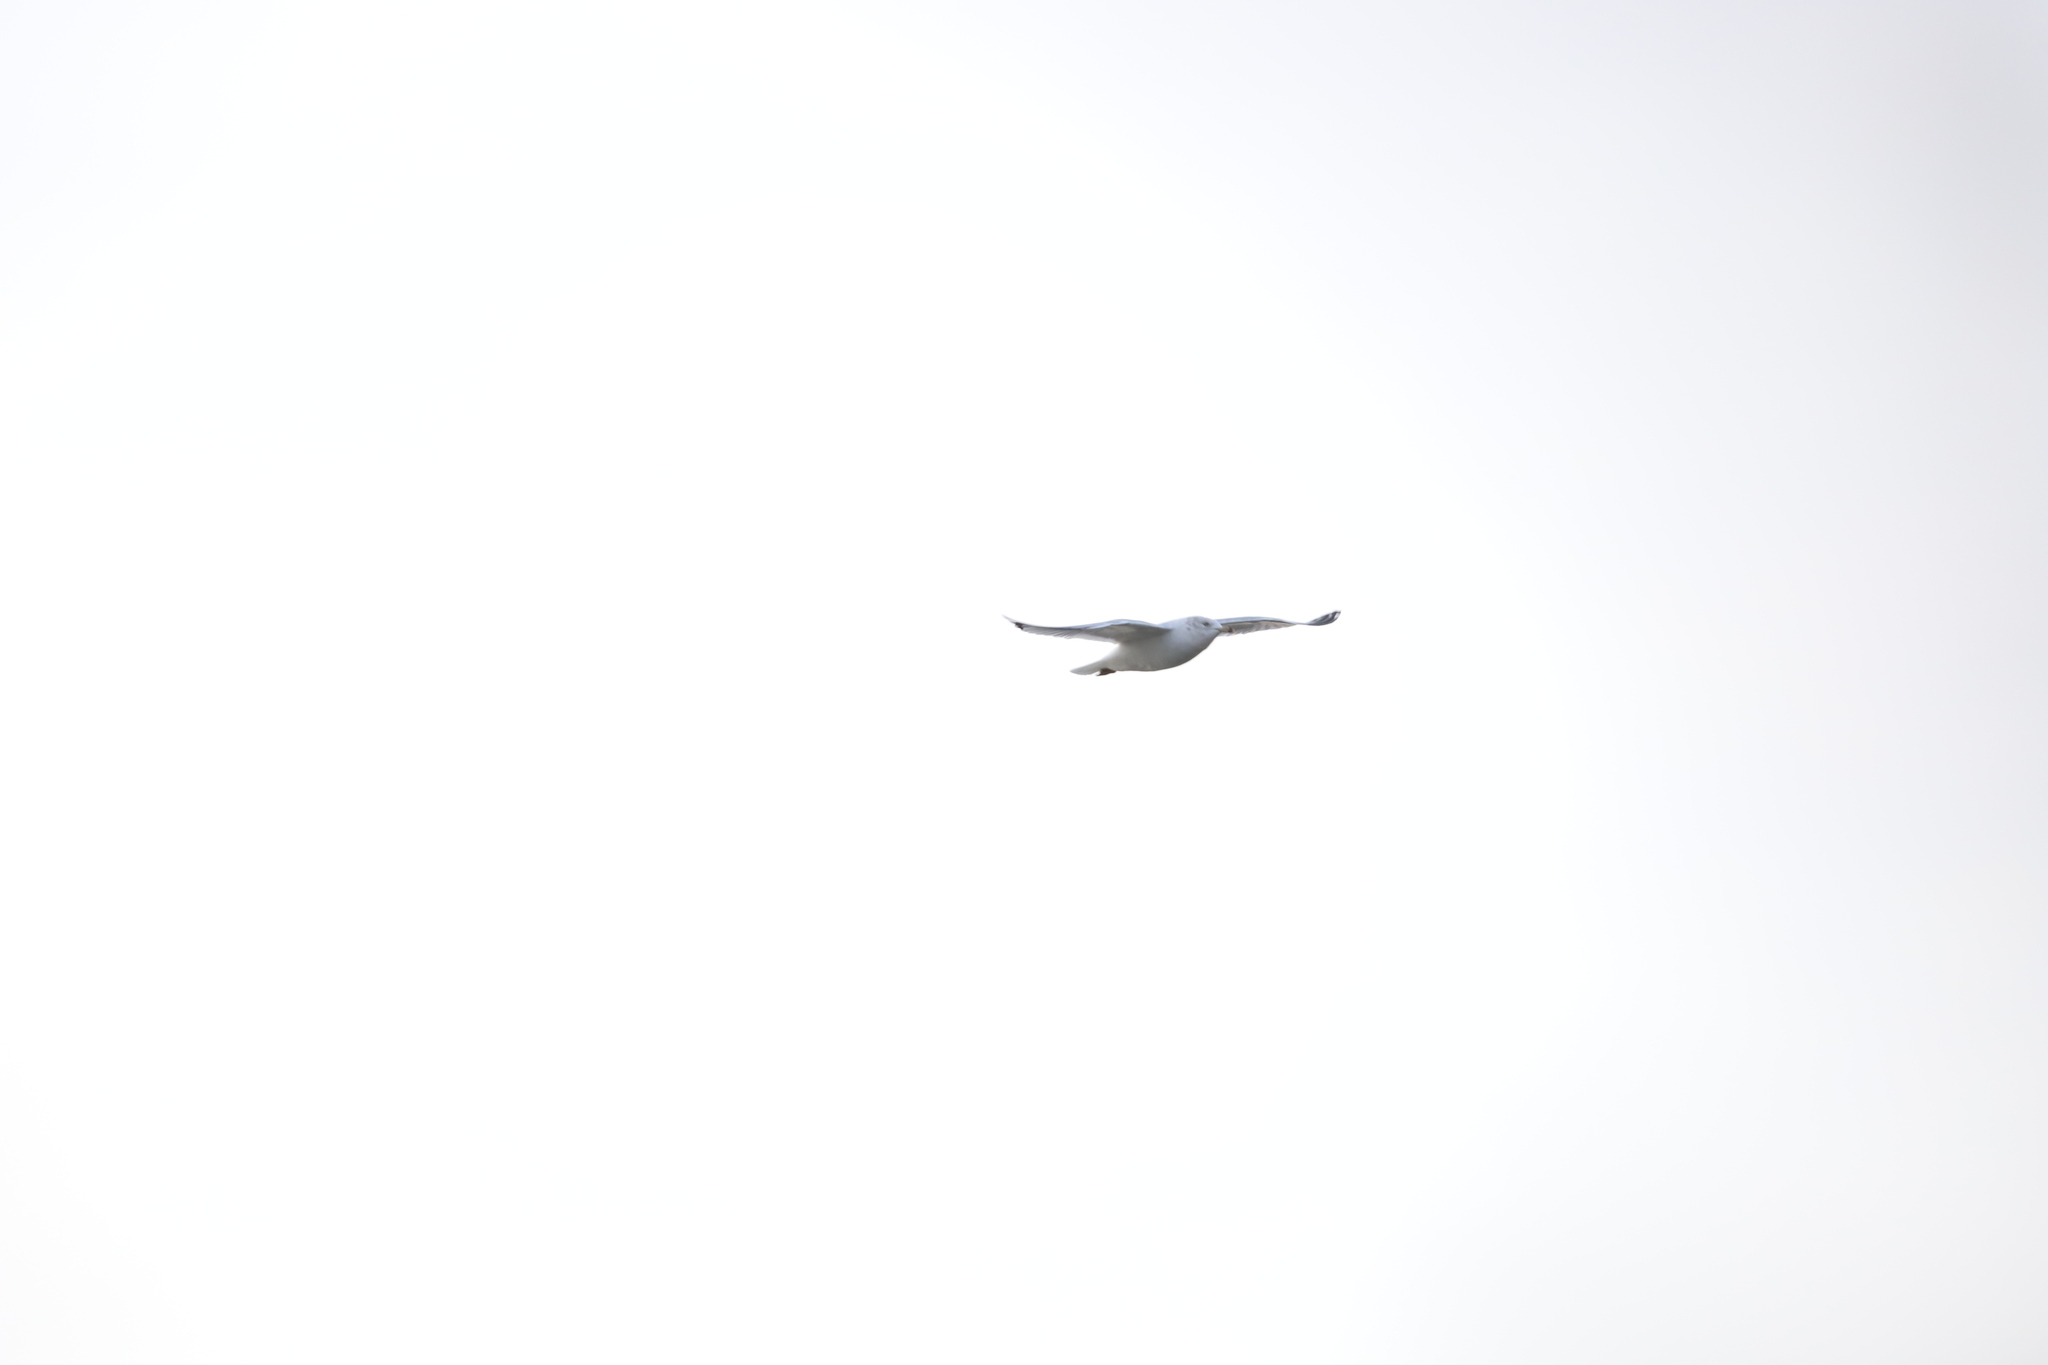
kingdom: Animalia
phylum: Chordata
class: Aves
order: Charadriiformes
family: Laridae
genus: Larus
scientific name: Larus delawarensis
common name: Ring-billed gull
